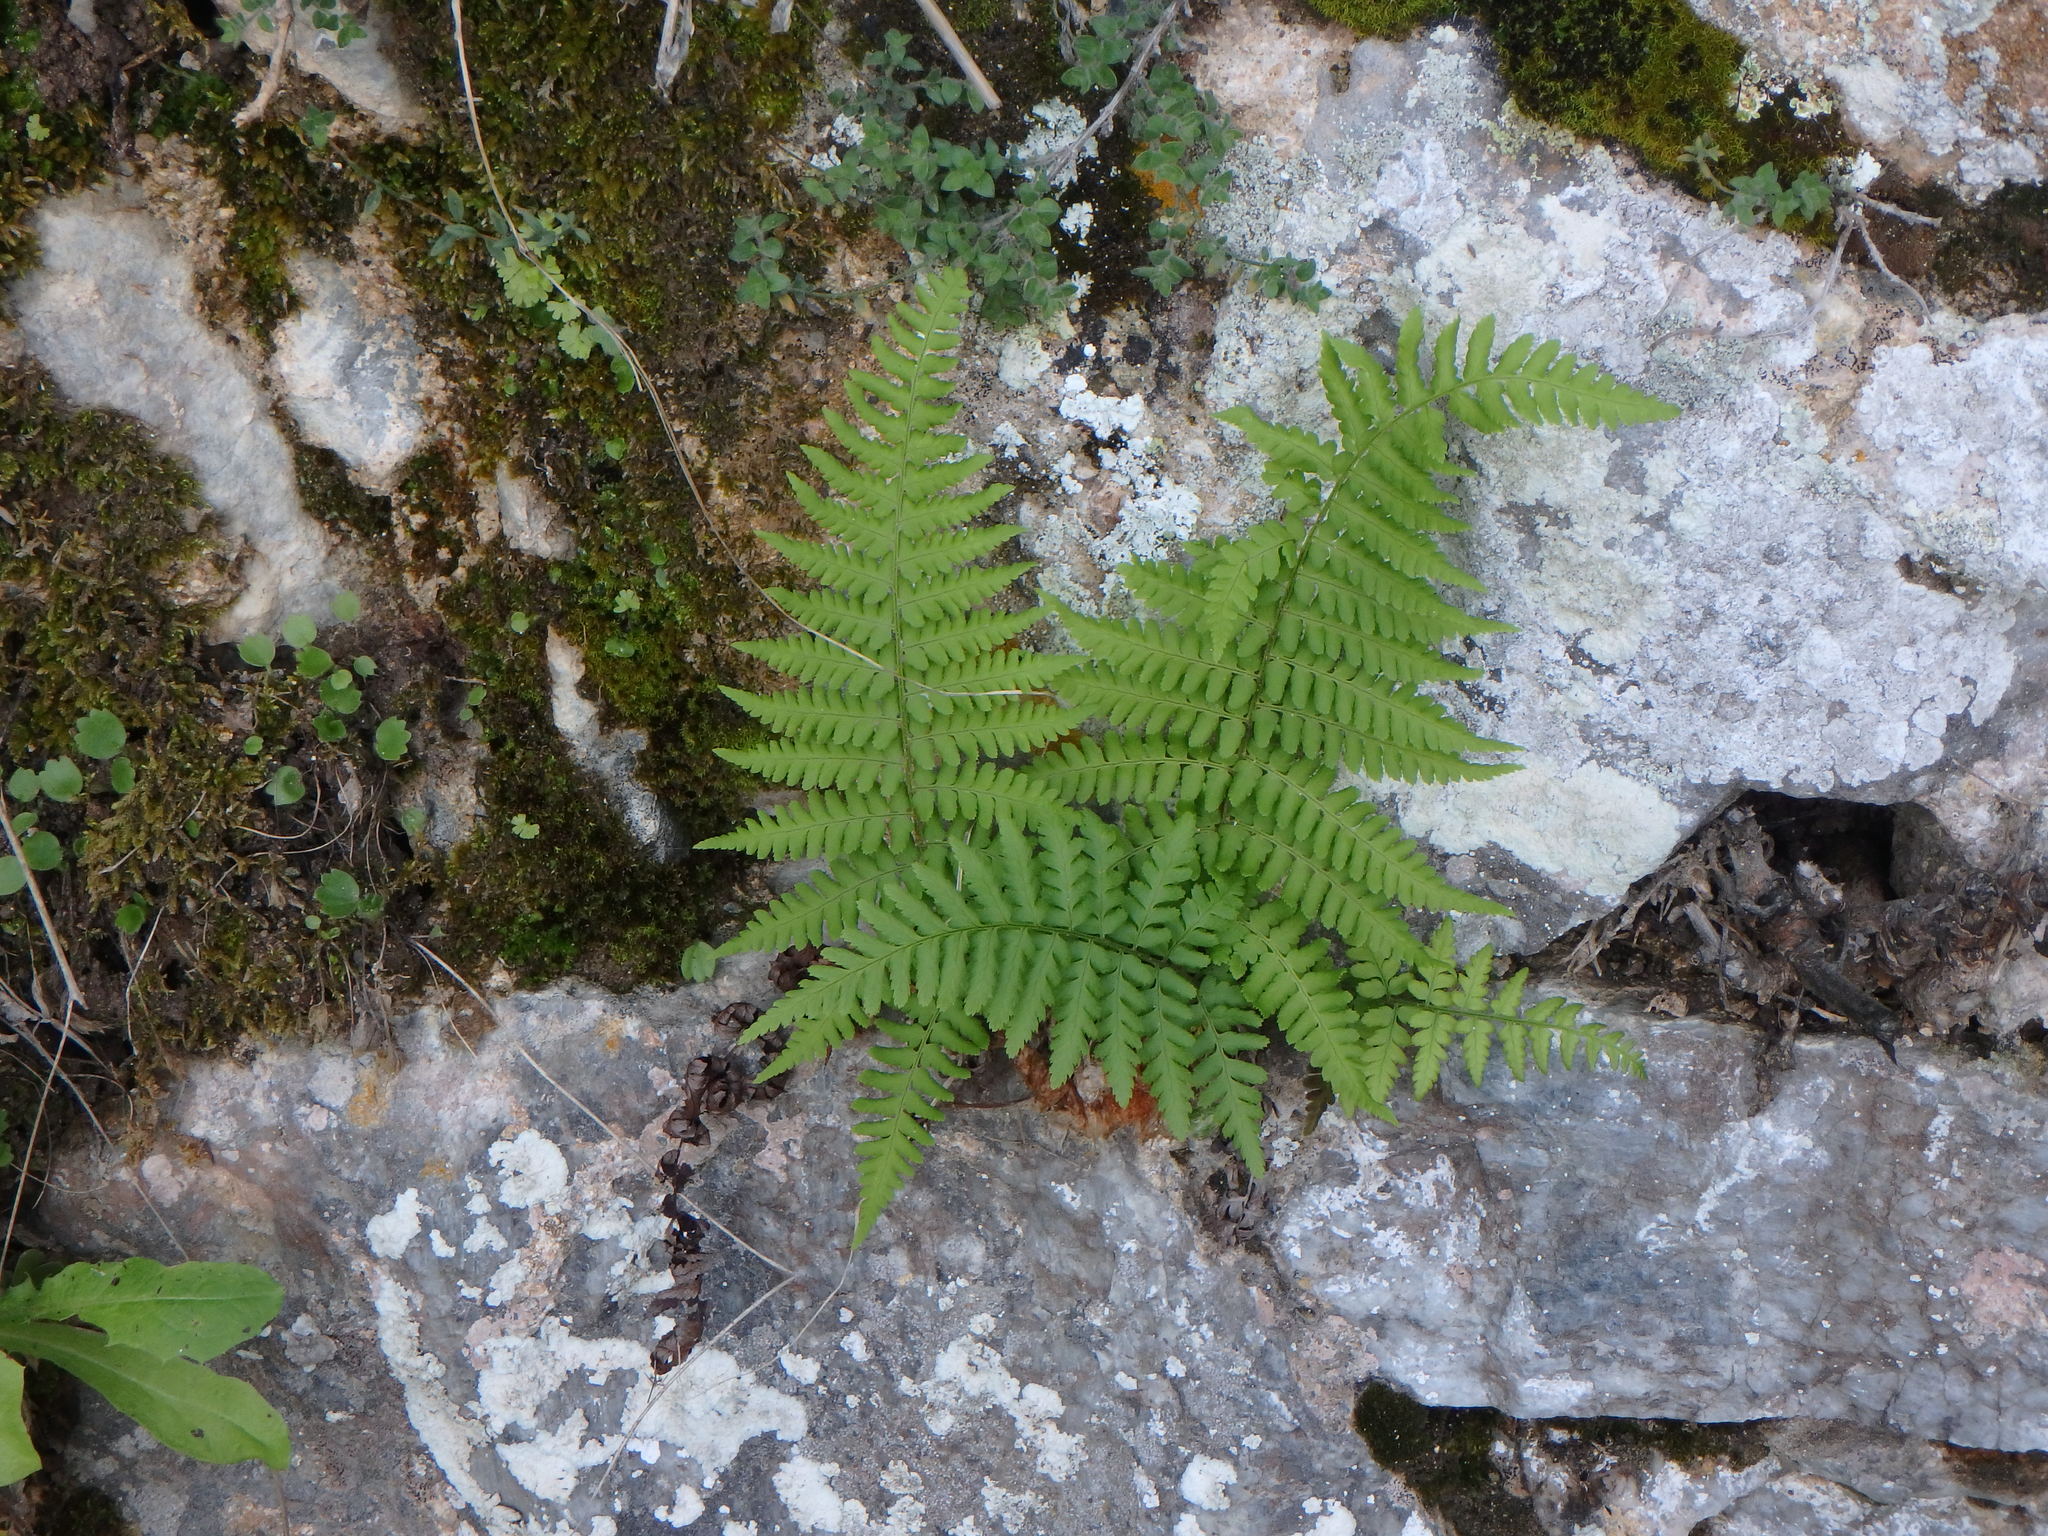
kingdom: Plantae
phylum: Tracheophyta
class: Polypodiopsida
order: Polypodiales
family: Dryopteridaceae
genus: Dryopteris
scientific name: Dryopteris pallida
